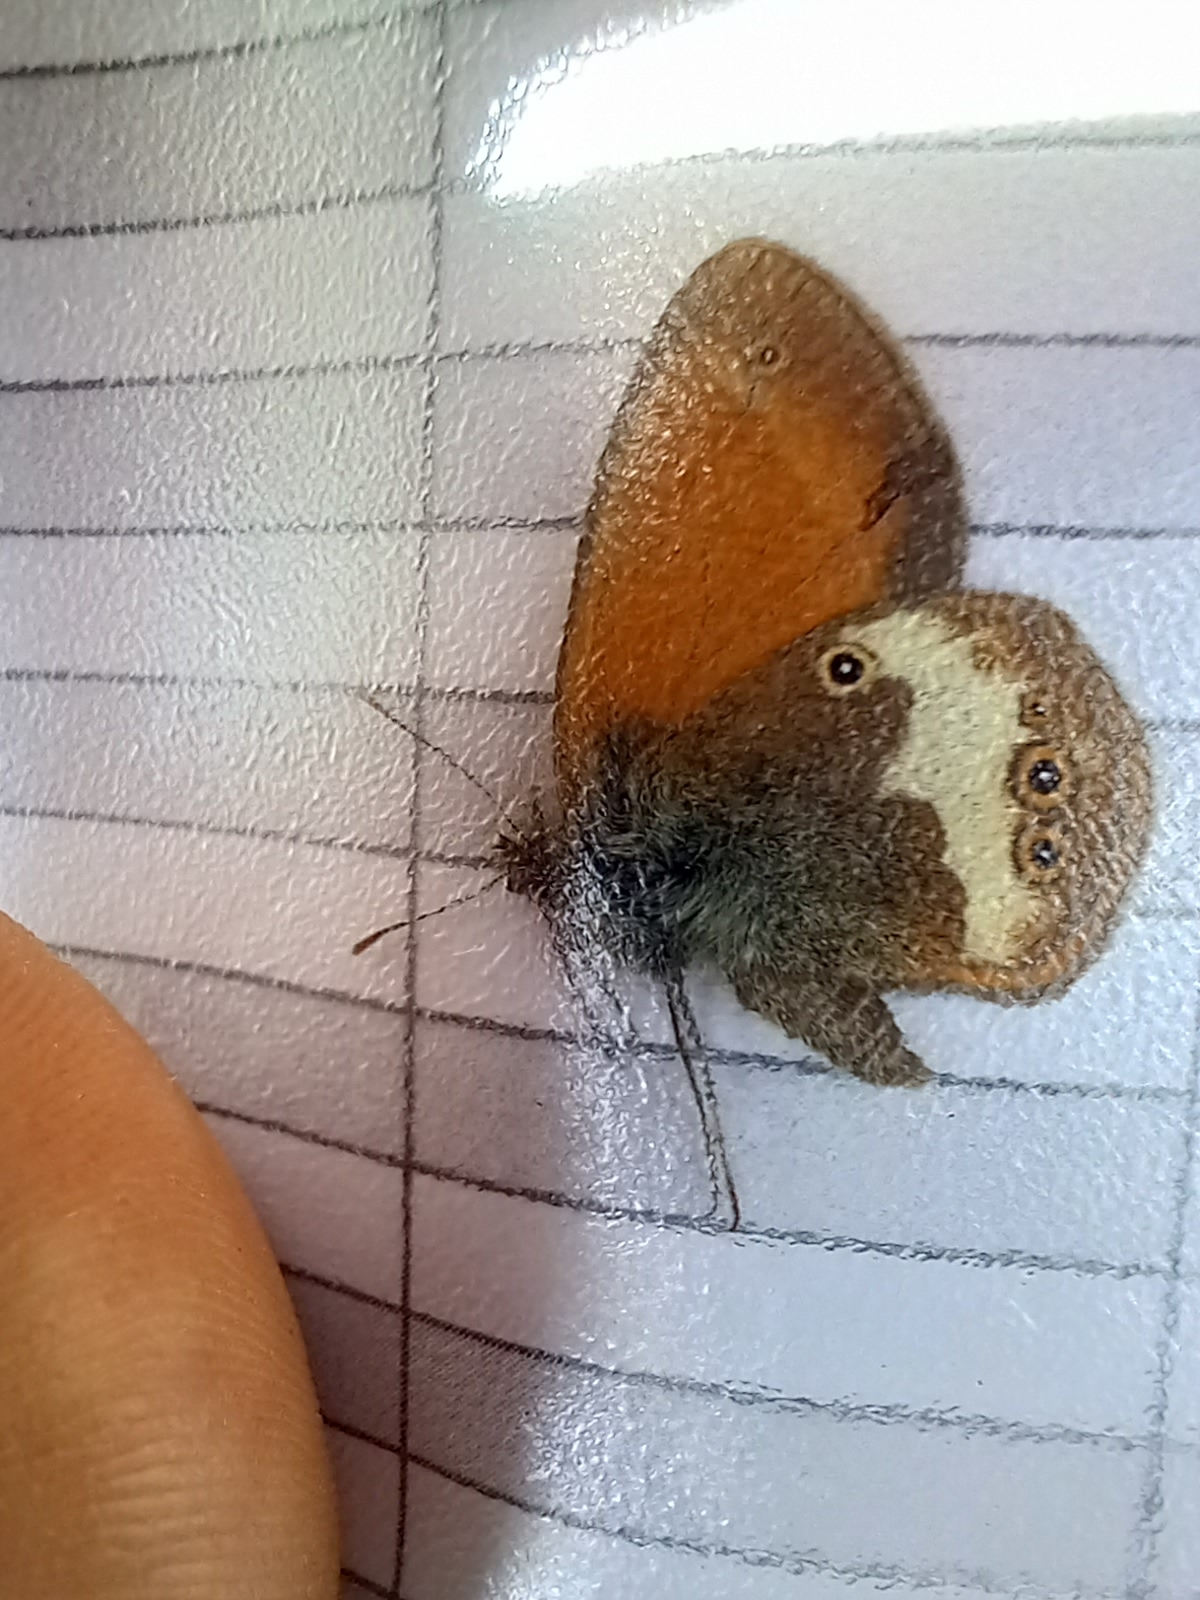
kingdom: Animalia
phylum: Arthropoda
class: Insecta
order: Lepidoptera
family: Nymphalidae
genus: Coenonympha
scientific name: Coenonympha arcania
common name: Pearly heath
